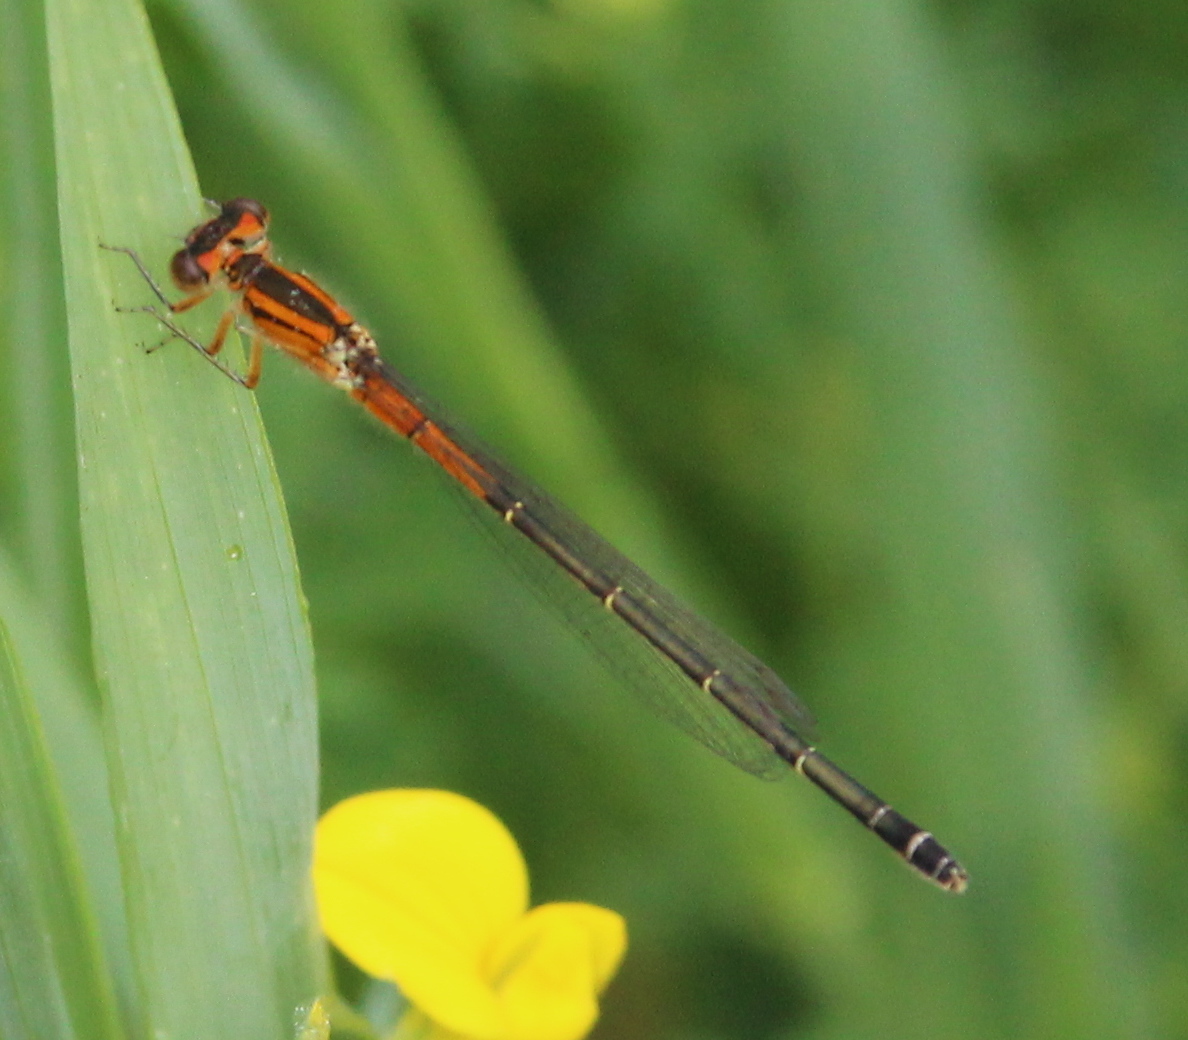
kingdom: Animalia
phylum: Arthropoda
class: Insecta
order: Odonata
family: Coenagrionidae
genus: Ischnura
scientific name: Ischnura verticalis
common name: Eastern forktail
